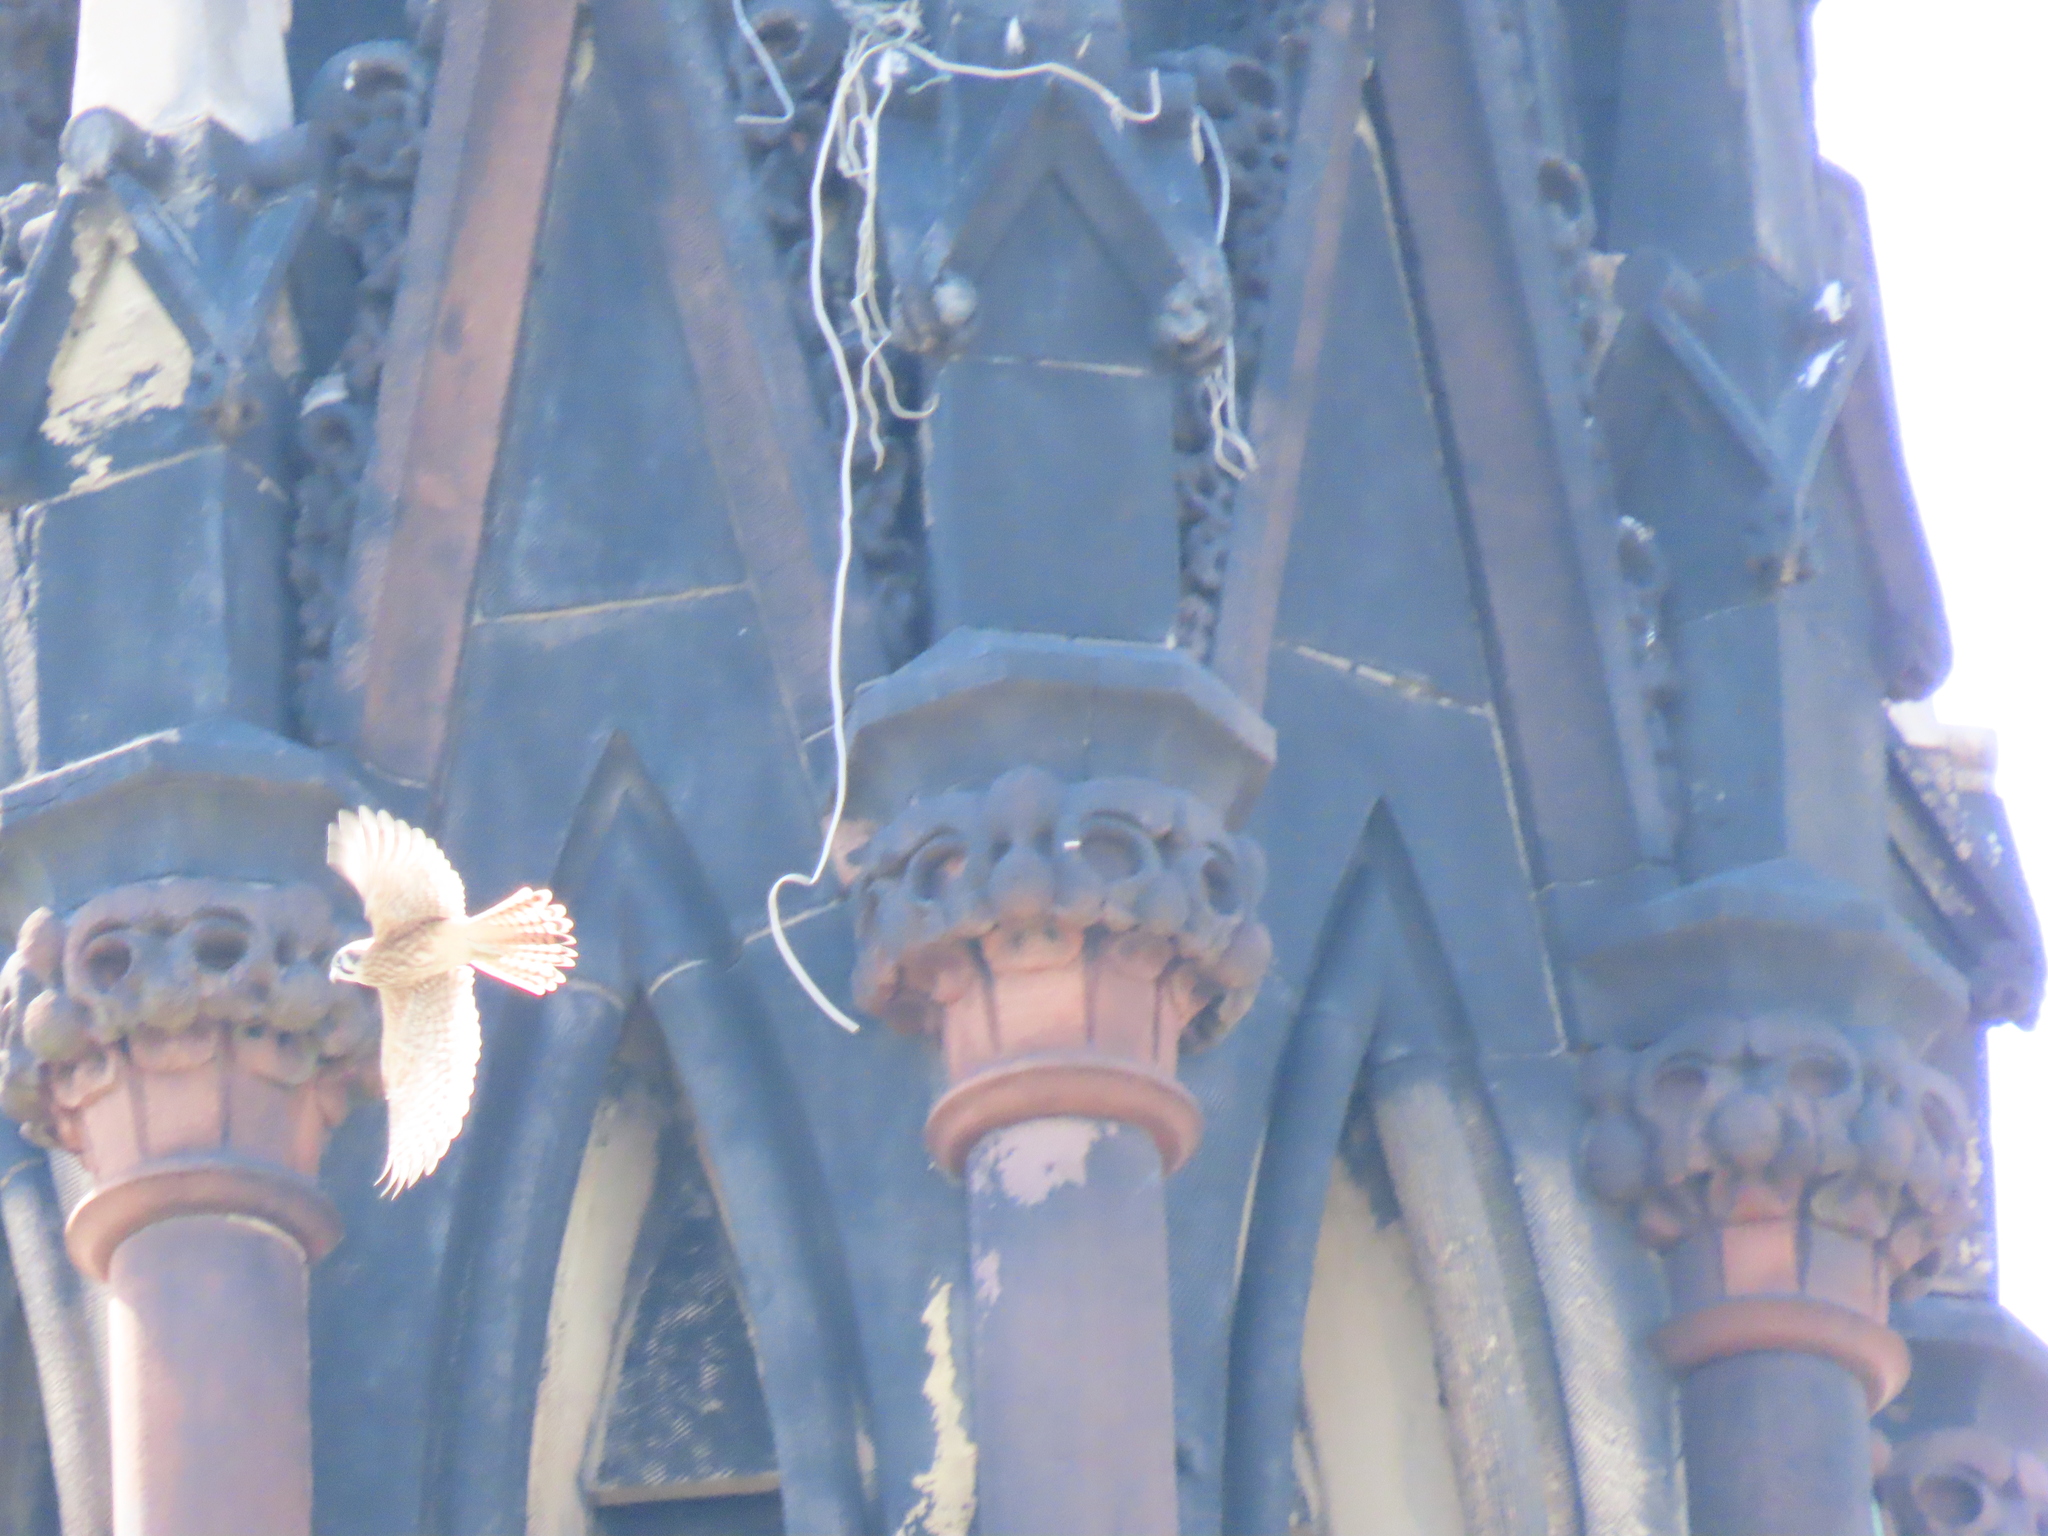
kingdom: Animalia
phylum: Chordata
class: Aves
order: Falconiformes
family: Falconidae
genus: Falco
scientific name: Falco sparverius
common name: American kestrel
